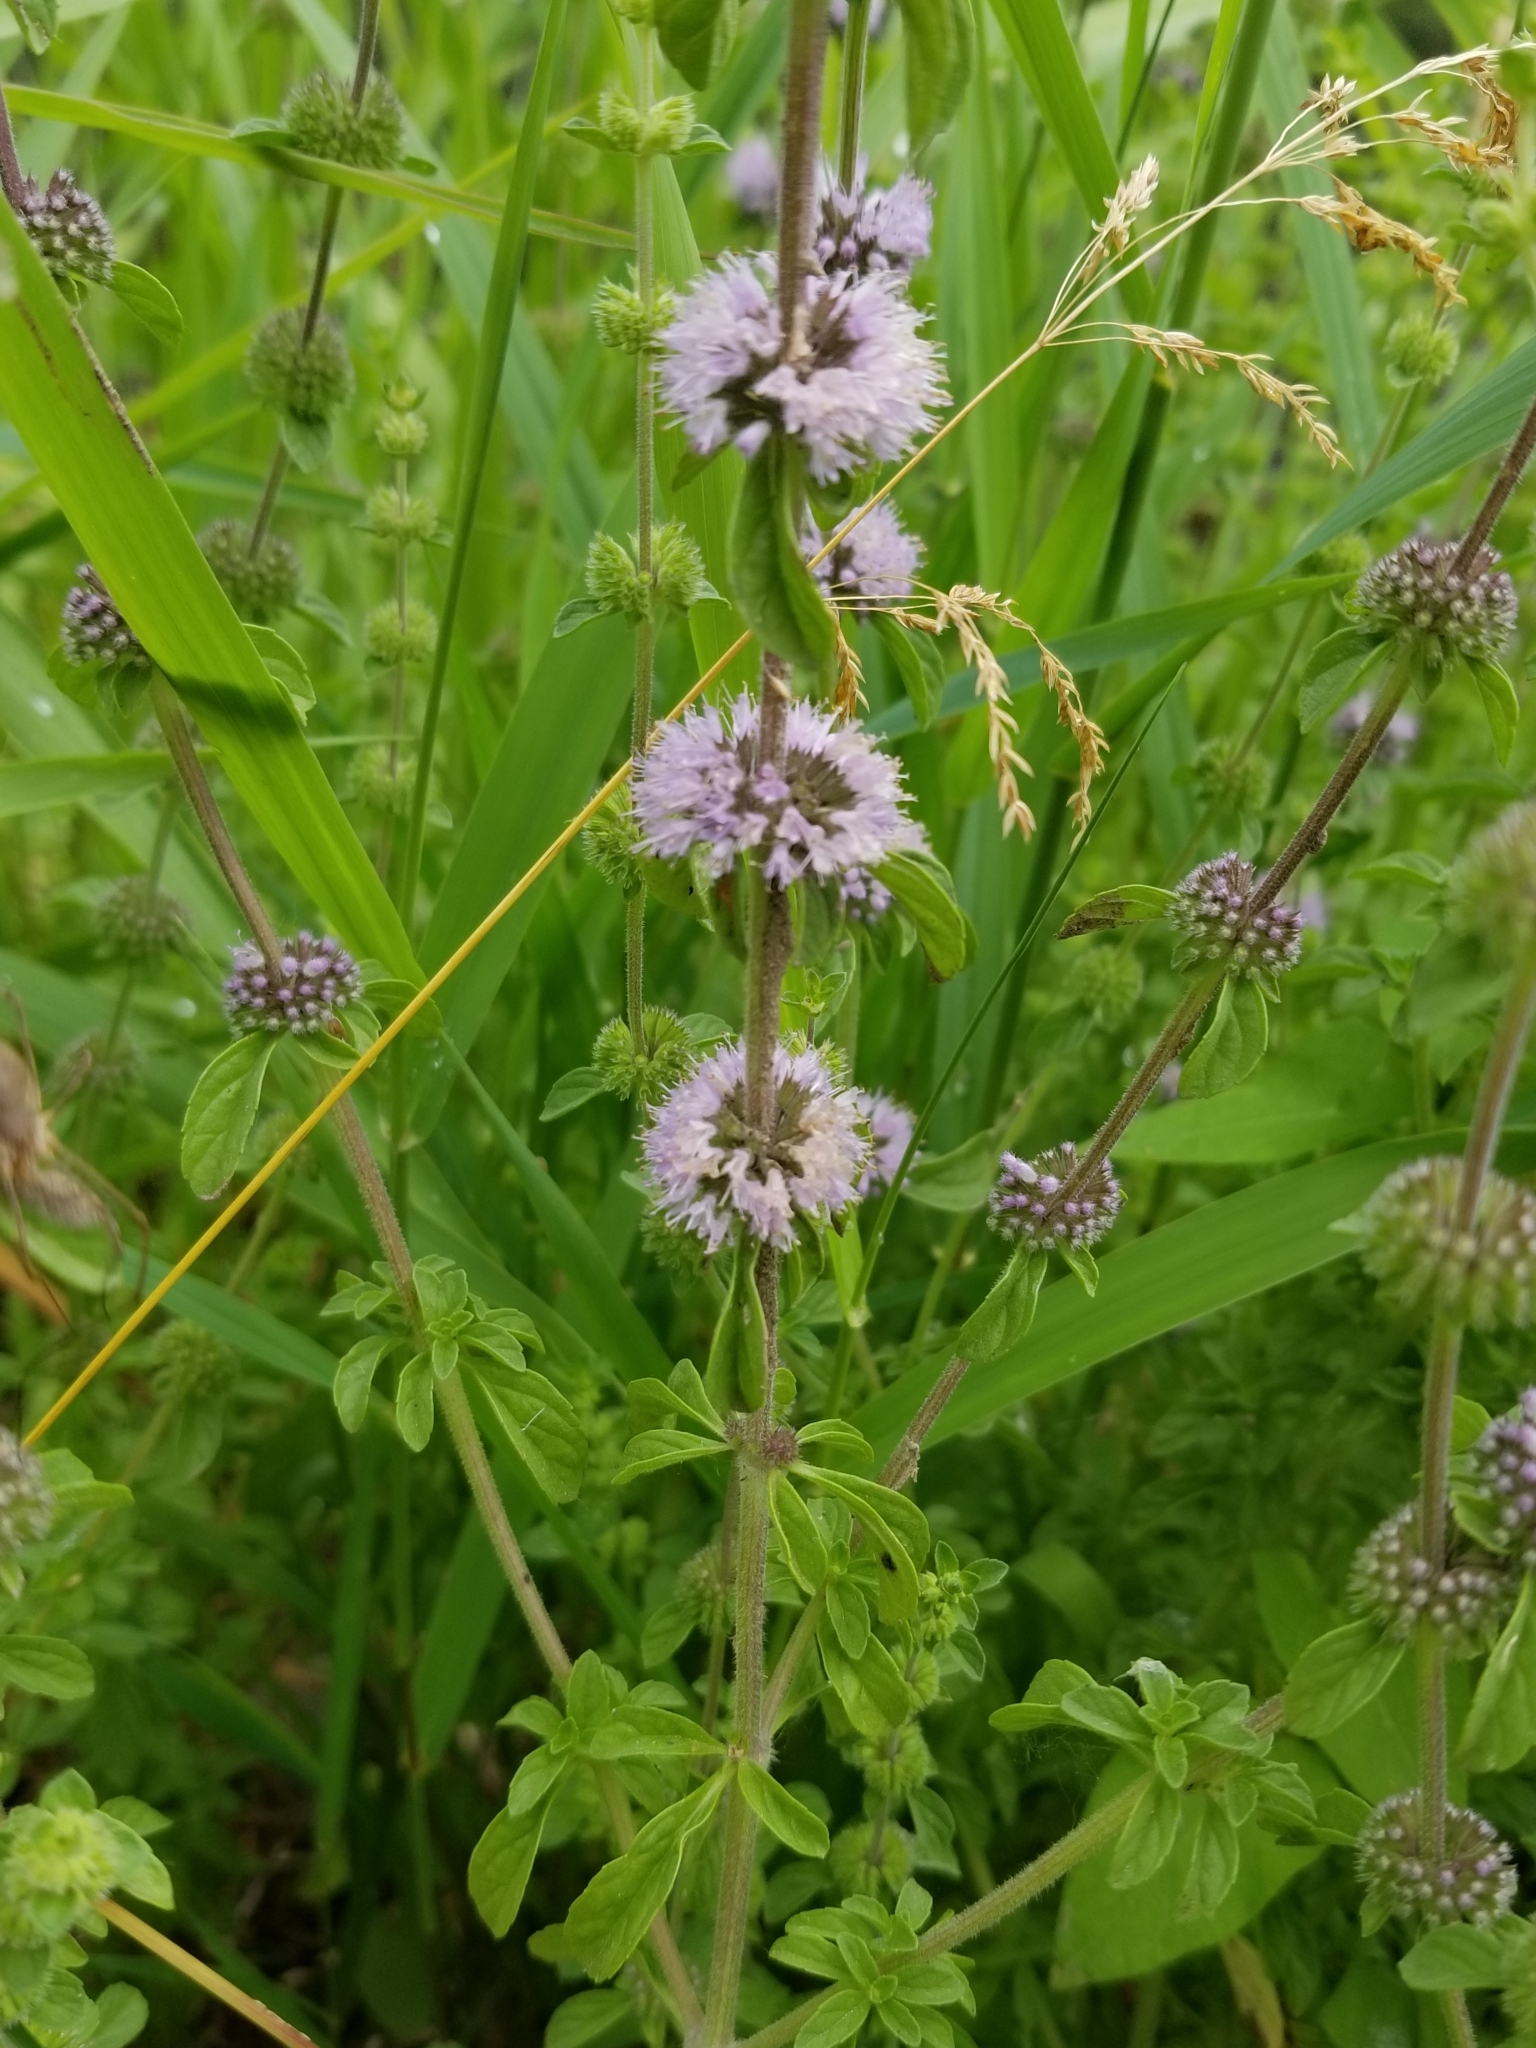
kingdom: Plantae
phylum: Tracheophyta
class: Magnoliopsida
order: Lamiales
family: Lamiaceae
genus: Mentha
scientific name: Mentha pulegium
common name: Pennyroyal
